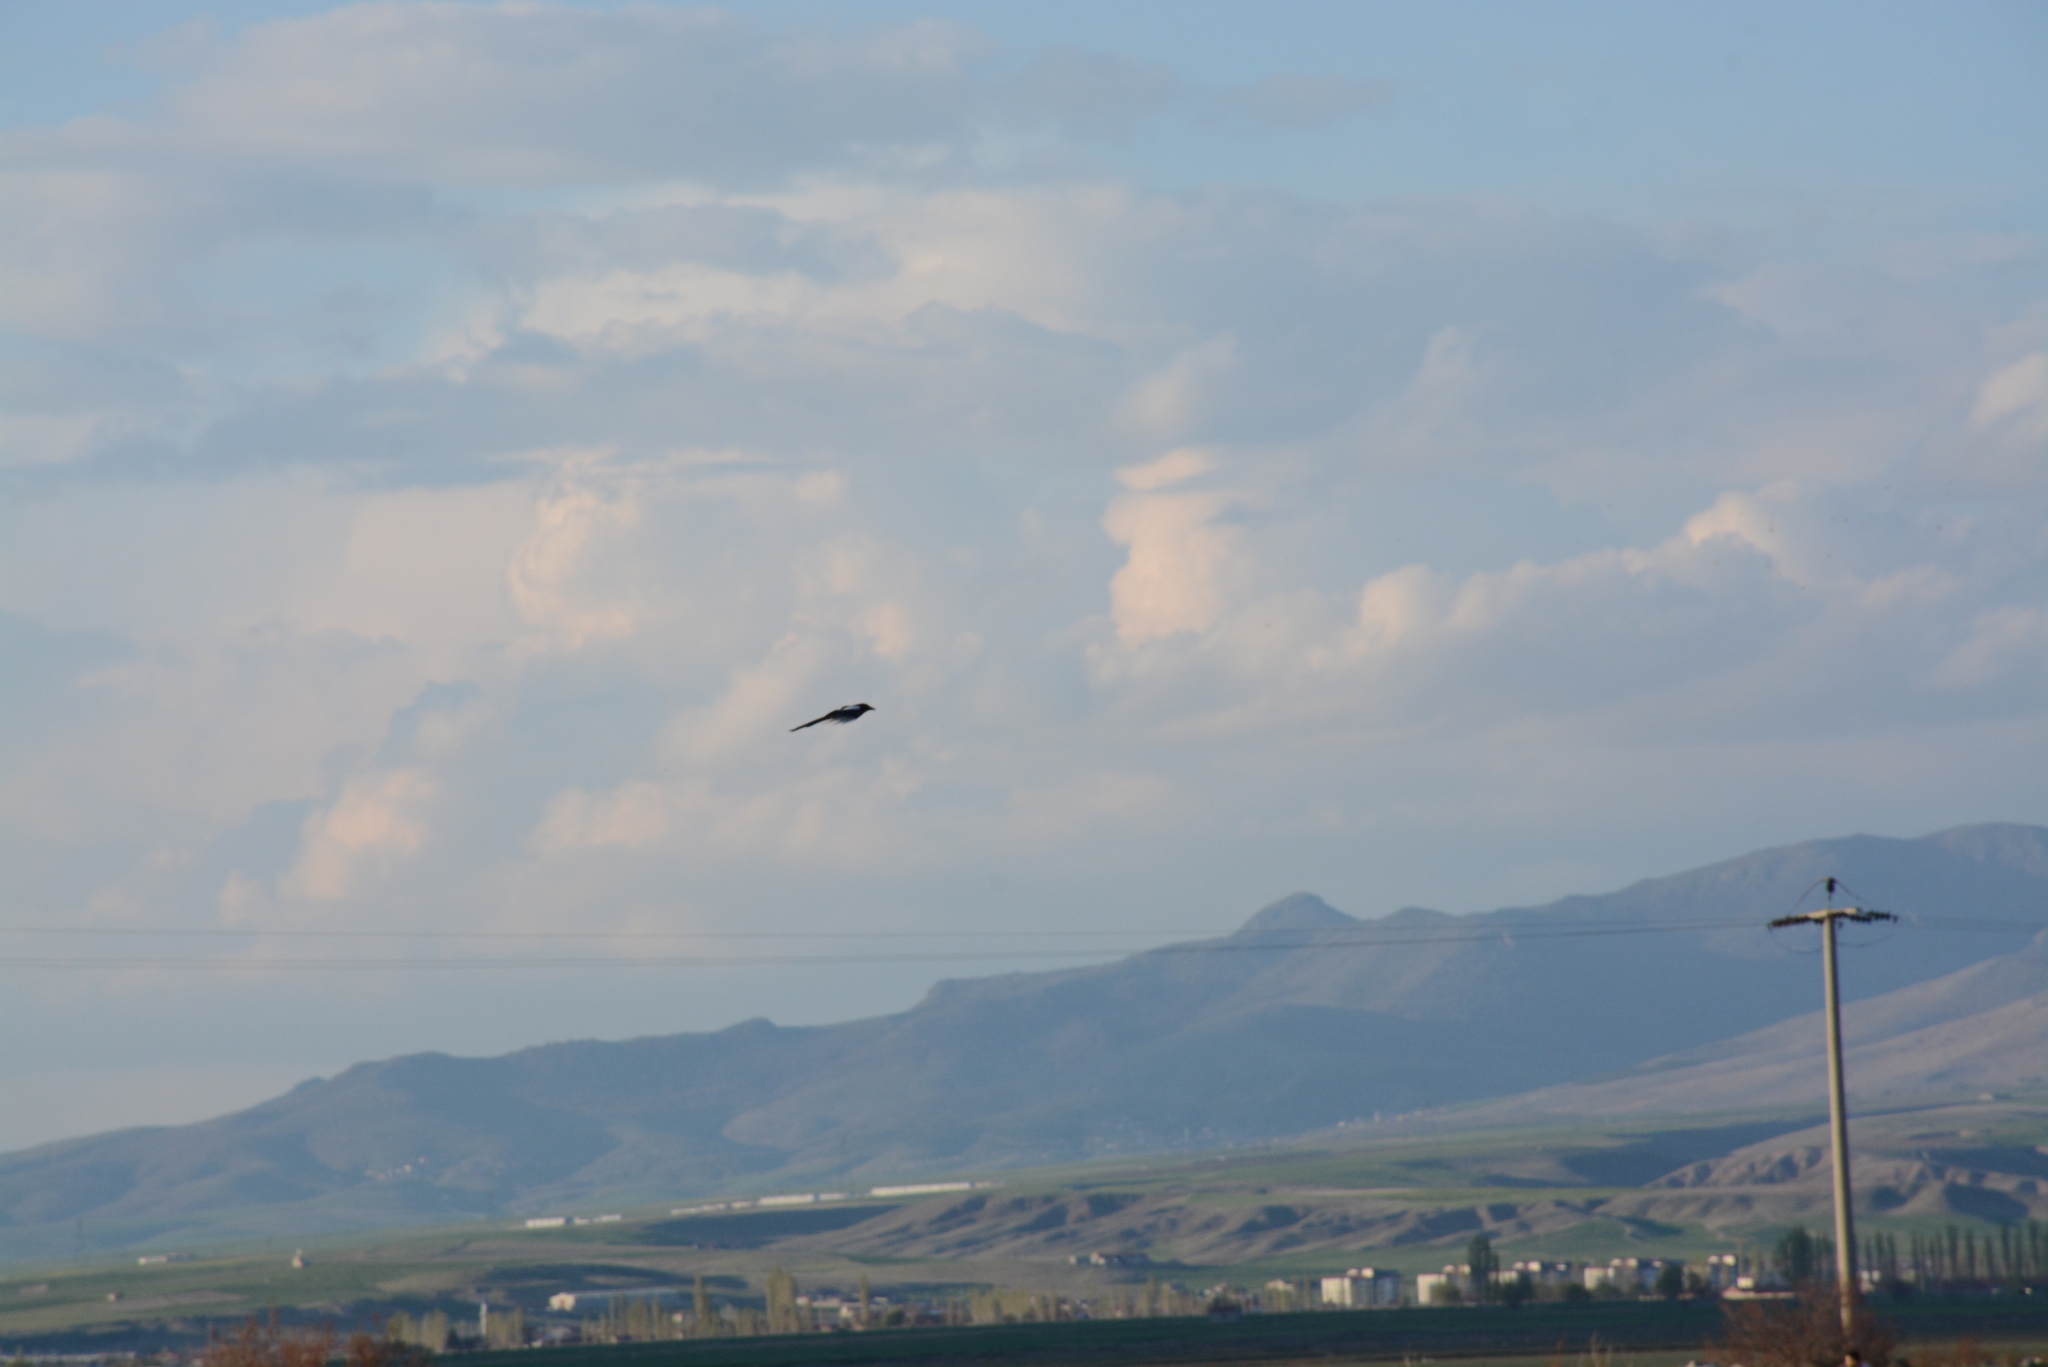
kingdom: Animalia
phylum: Chordata
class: Aves
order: Passeriformes
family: Corvidae
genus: Pica
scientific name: Pica pica
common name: Eurasian magpie
